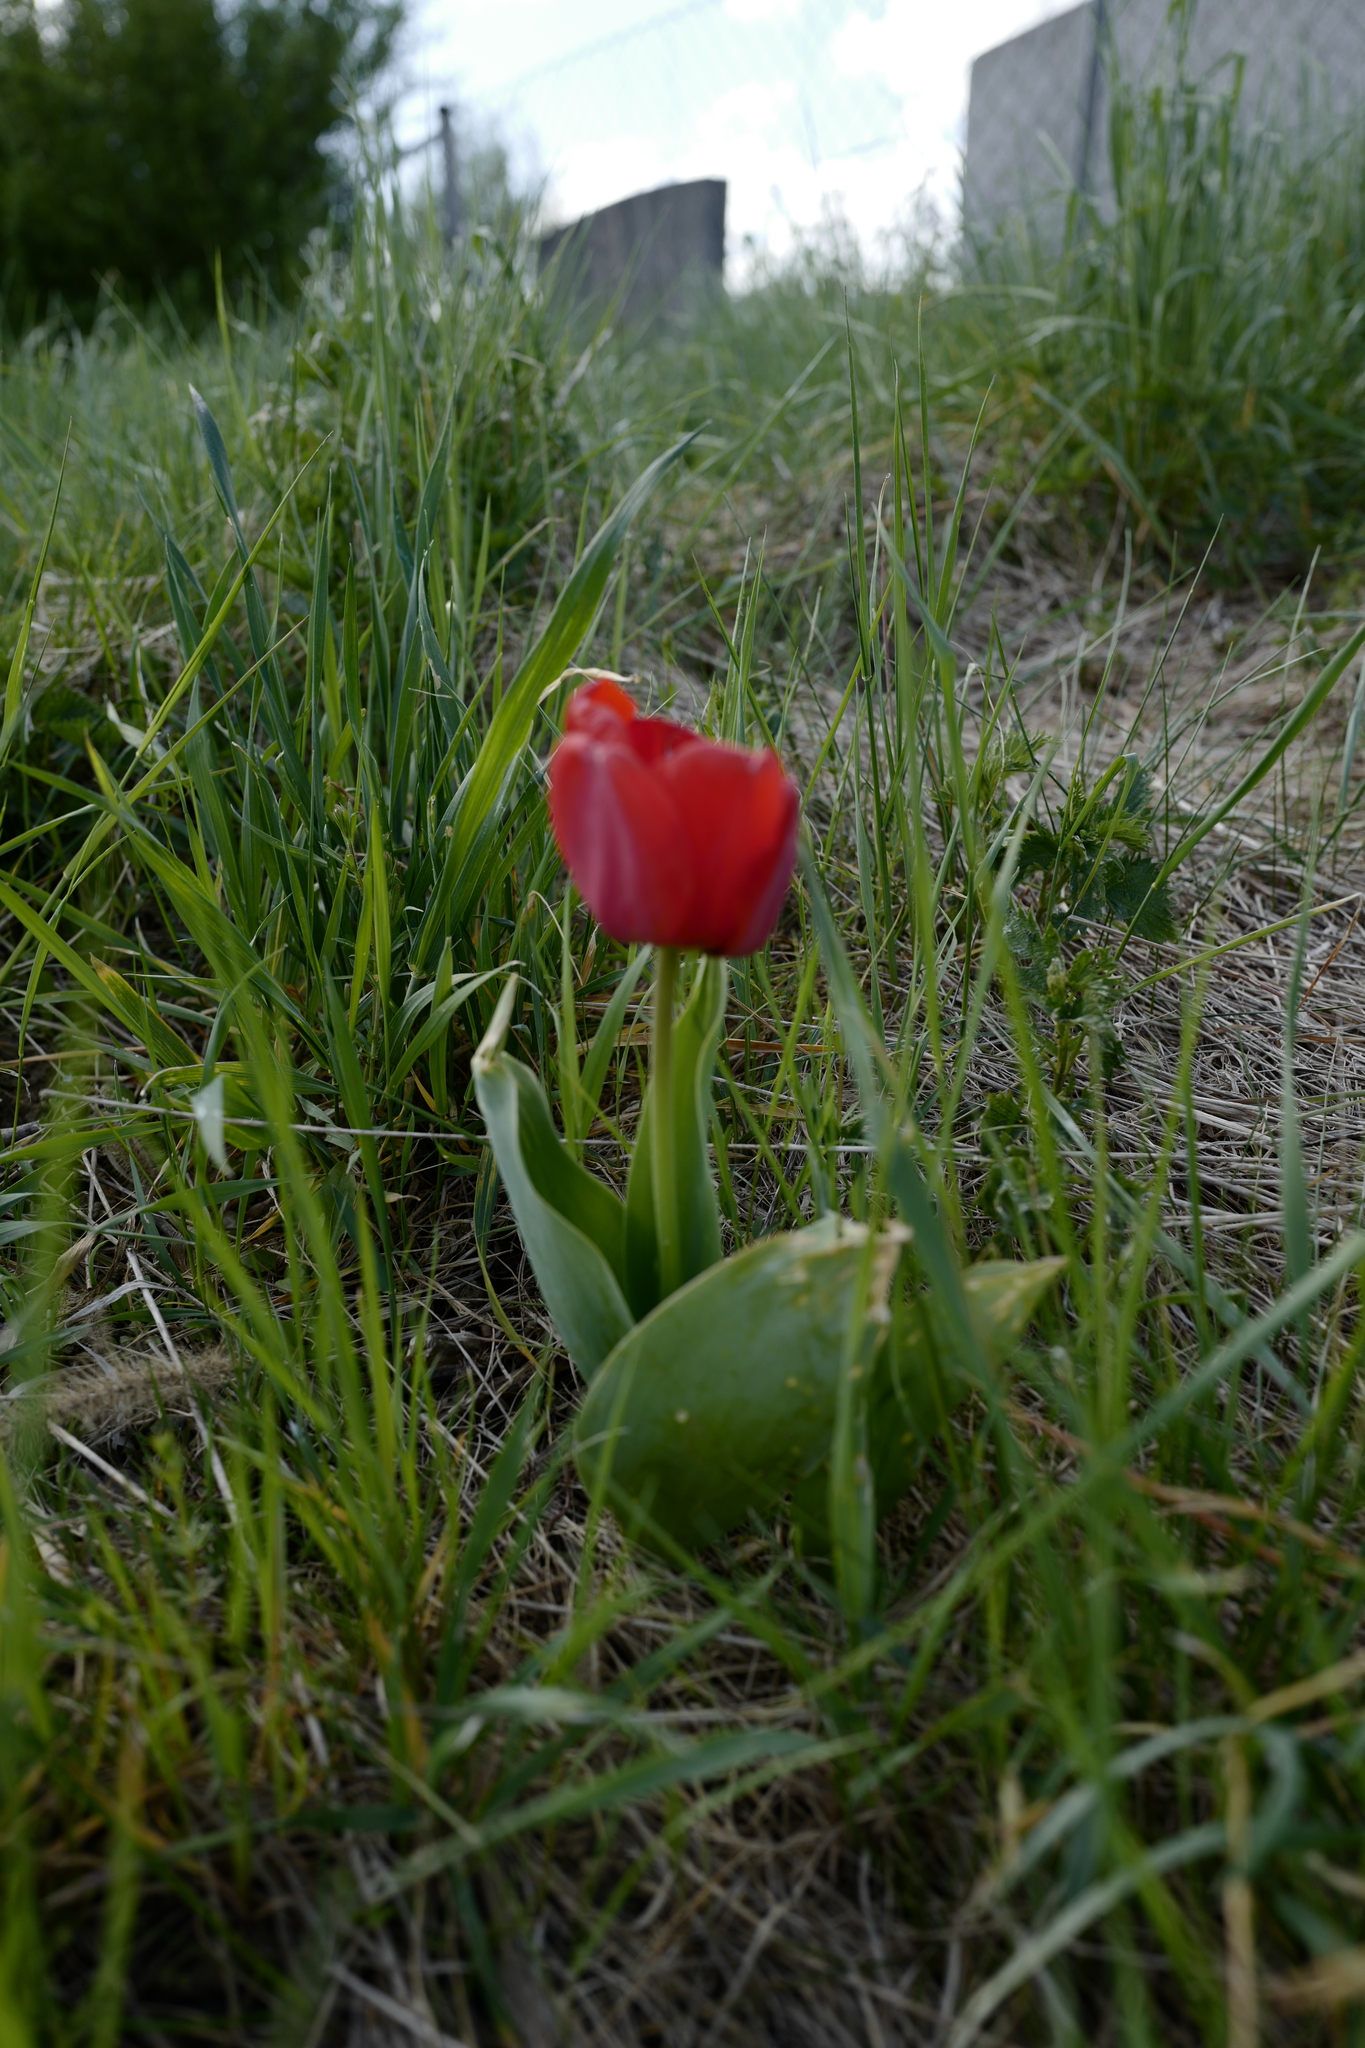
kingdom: Plantae
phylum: Tracheophyta
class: Liliopsida
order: Liliales
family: Liliaceae
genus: Tulipa
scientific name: Tulipa gesneriana
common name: Garden tulip
